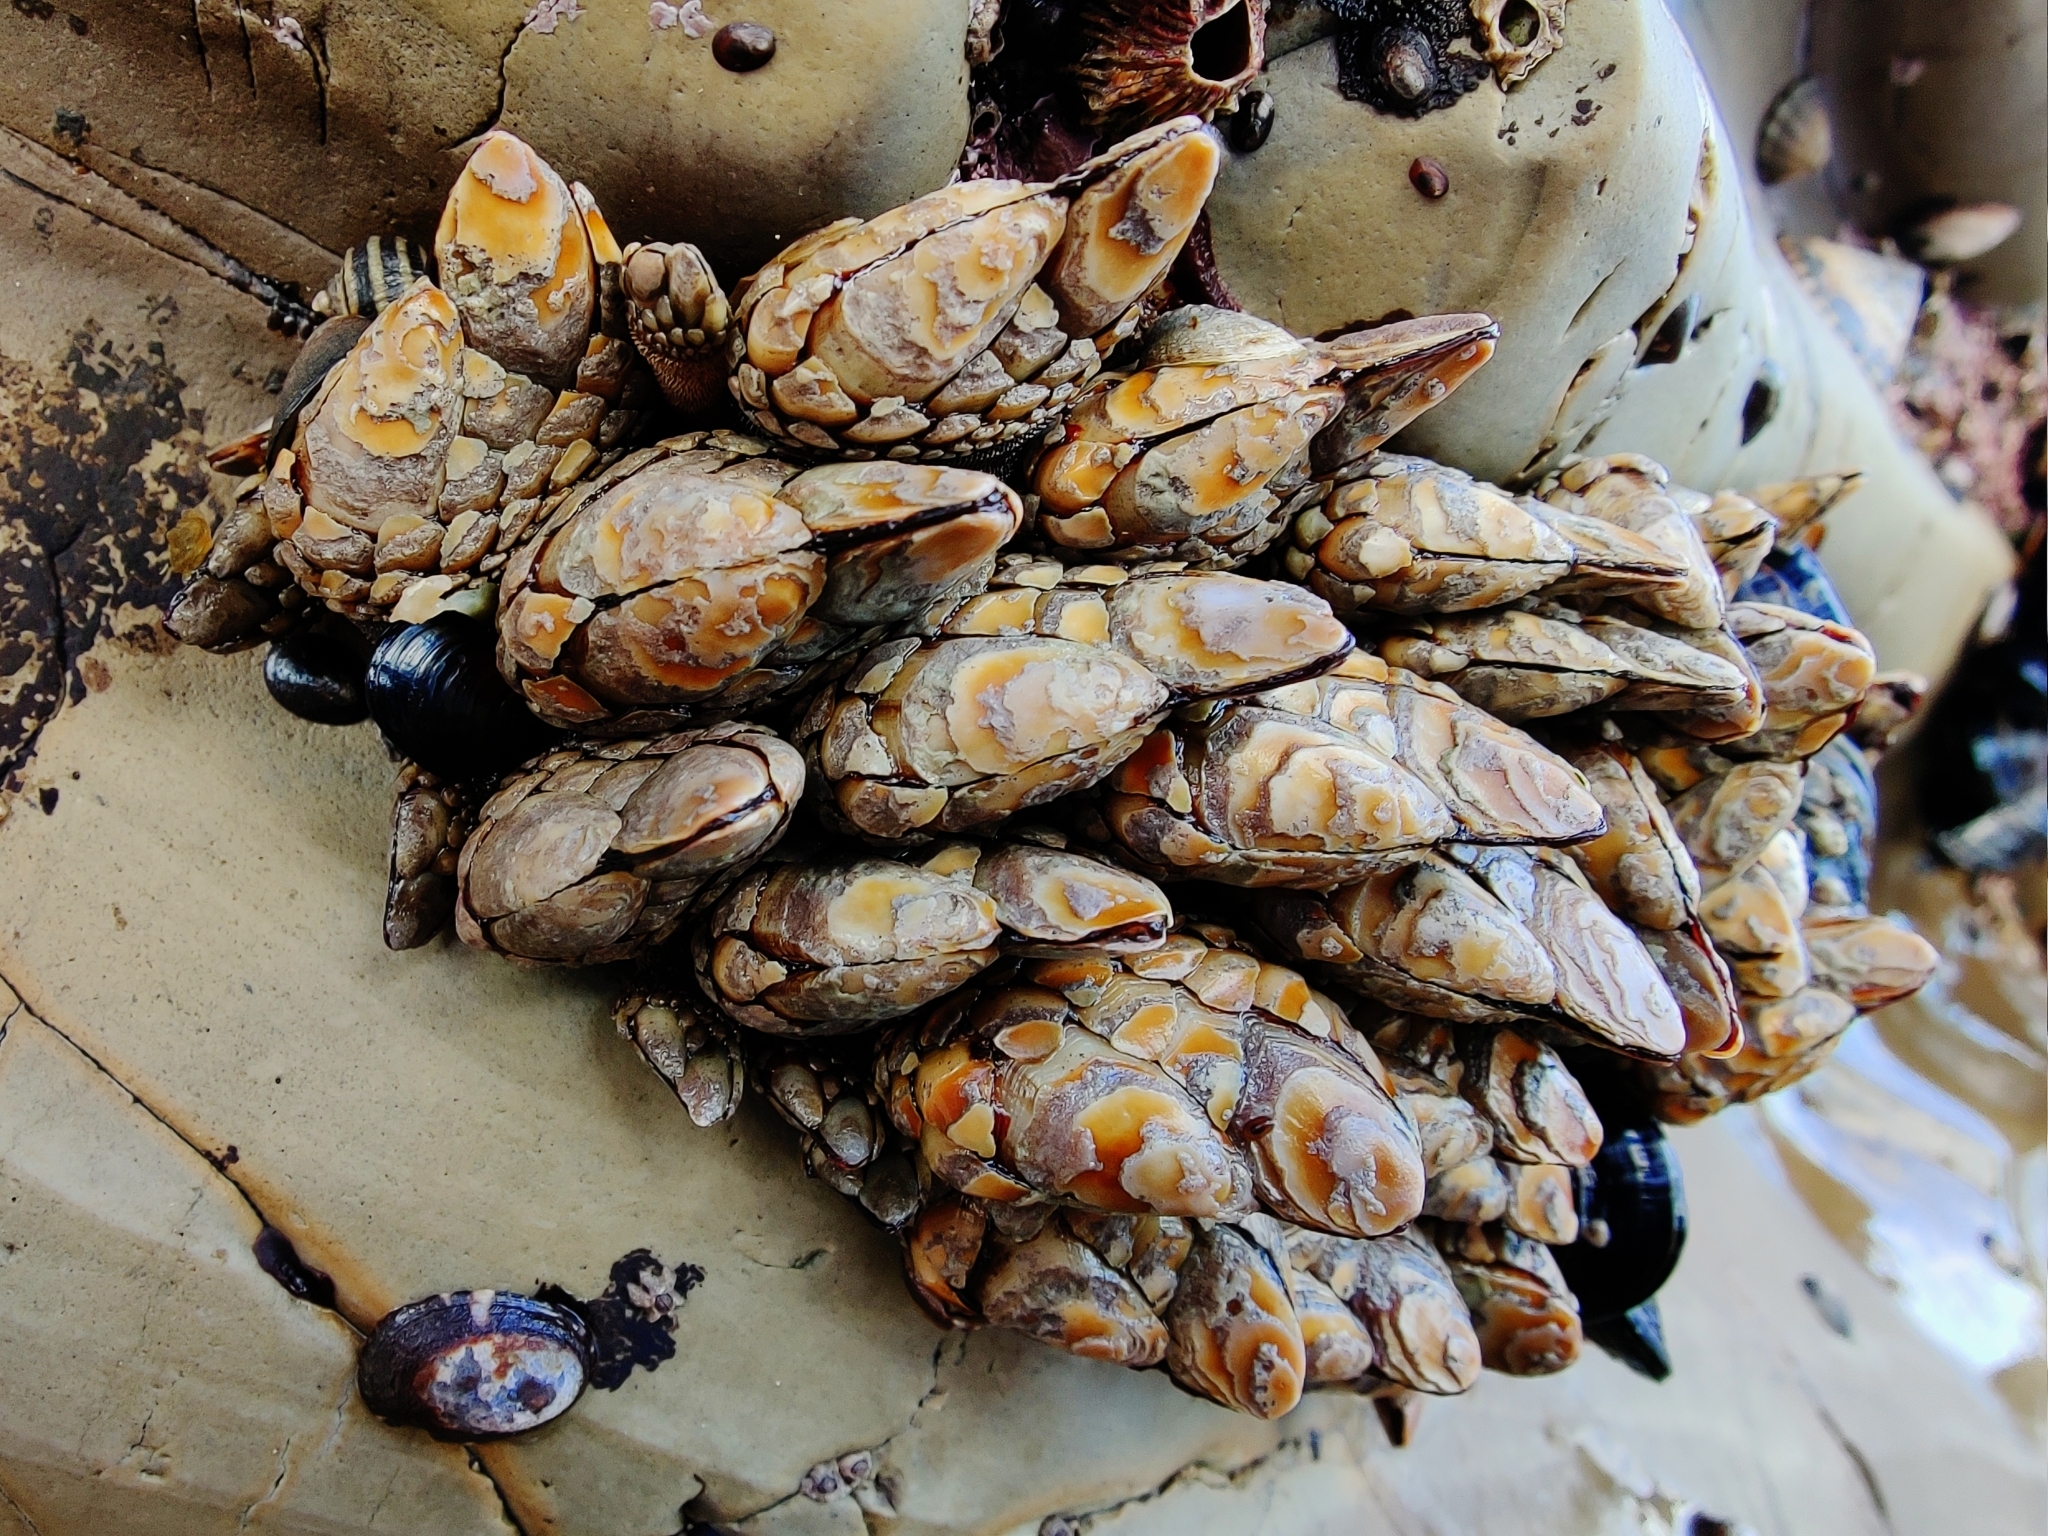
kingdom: Animalia
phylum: Arthropoda
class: Maxillopoda
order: Pedunculata
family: Pollicipedidae
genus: Pollicipes
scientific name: Pollicipes polymerus
